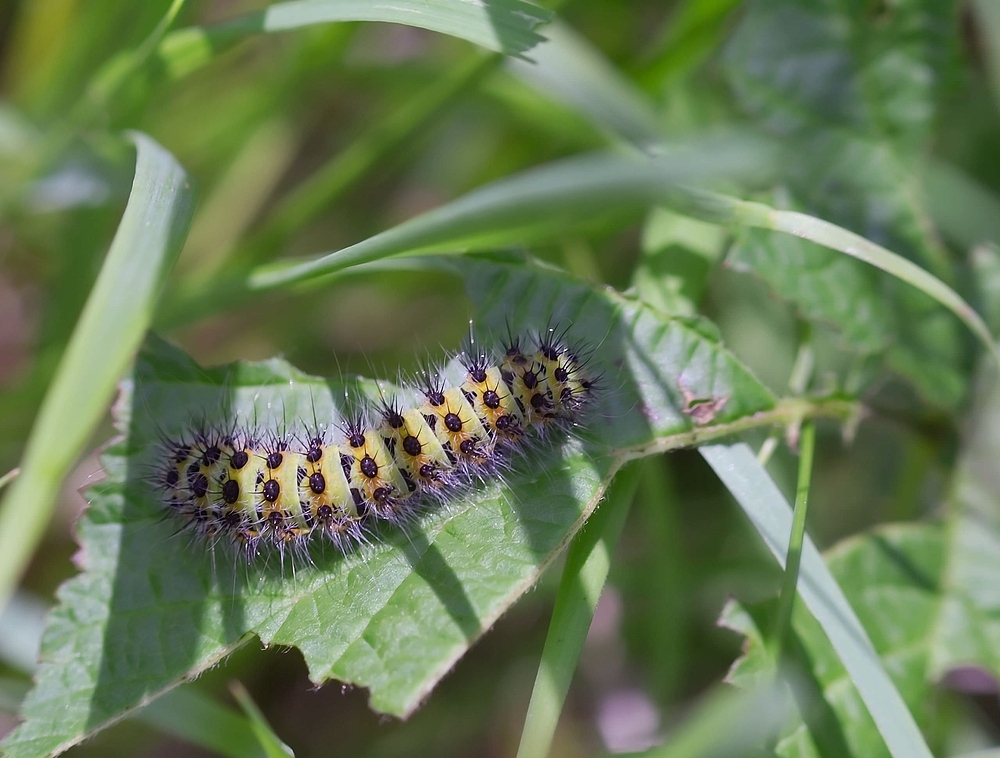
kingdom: Animalia
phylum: Arthropoda
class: Insecta
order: Lepidoptera
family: Saturniidae
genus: Saturnia
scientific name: Saturnia pavonia
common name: Emperor moth
